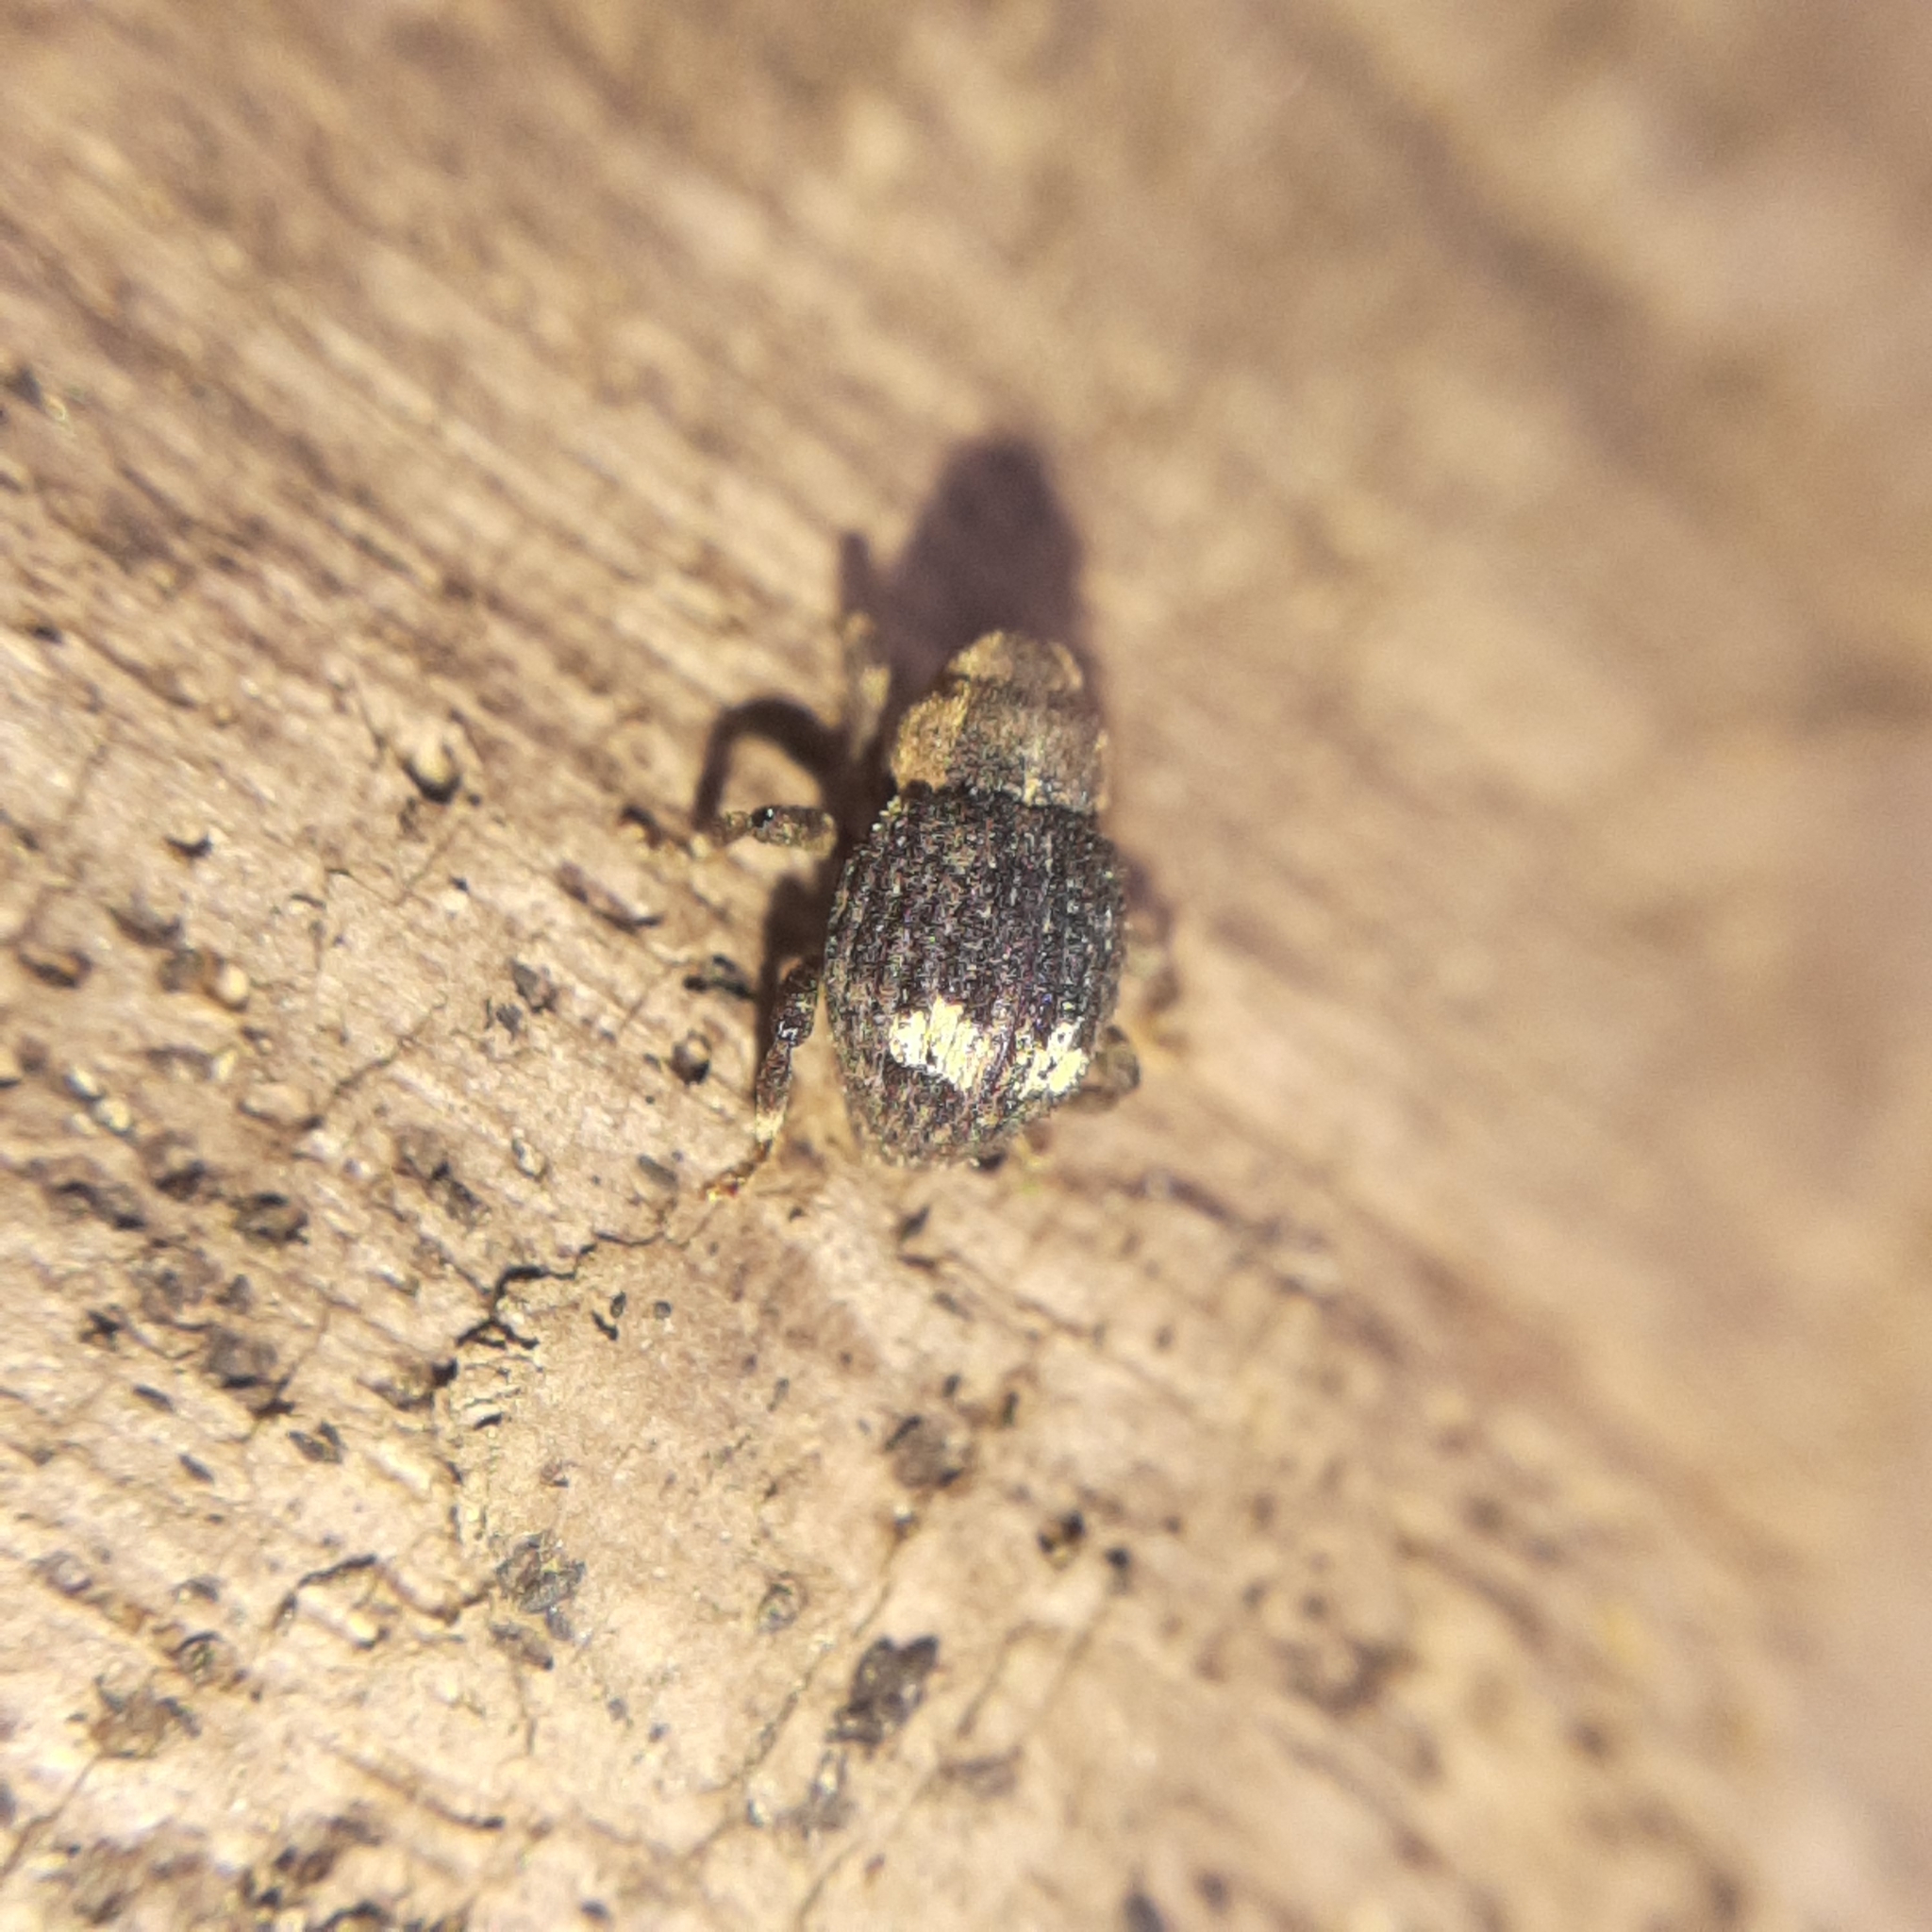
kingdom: Animalia
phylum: Arthropoda
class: Insecta
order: Coleoptera
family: Curculionidae
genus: Echinodera
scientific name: Echinodera hypocrita
